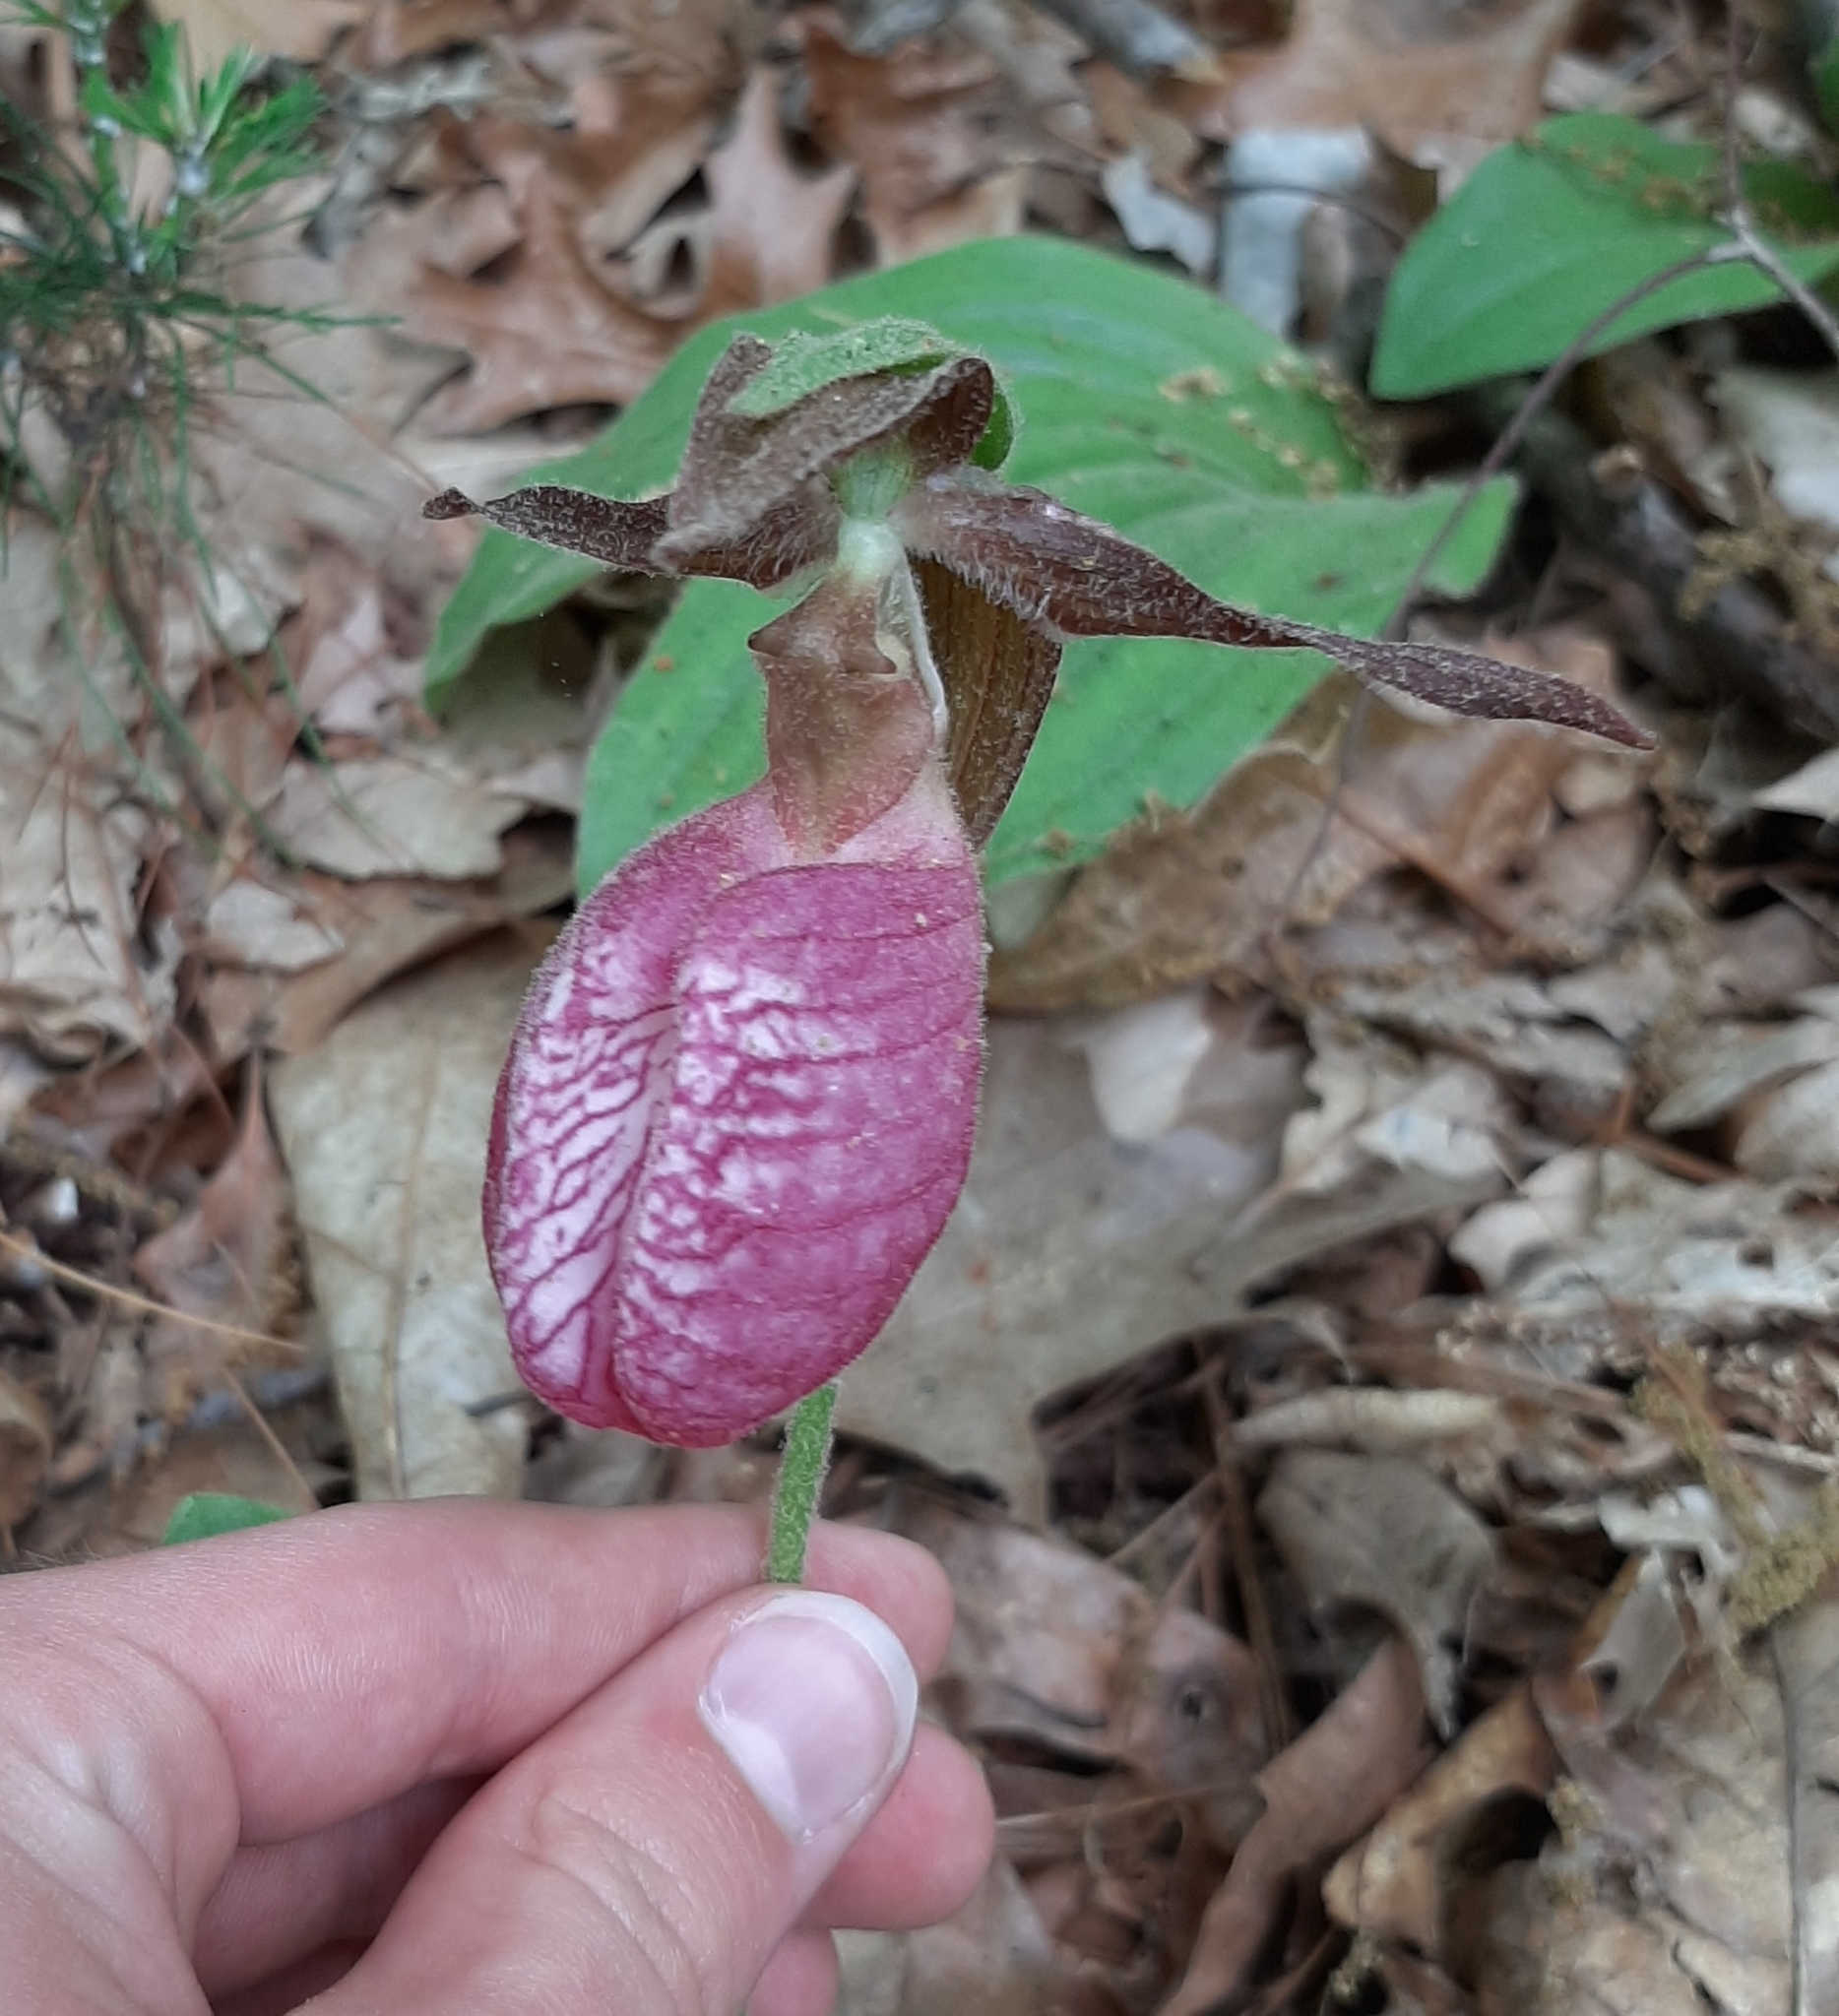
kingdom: Plantae
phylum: Tracheophyta
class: Liliopsida
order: Asparagales
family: Orchidaceae
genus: Cypripedium
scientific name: Cypripedium acaule
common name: Pink lady's-slipper
